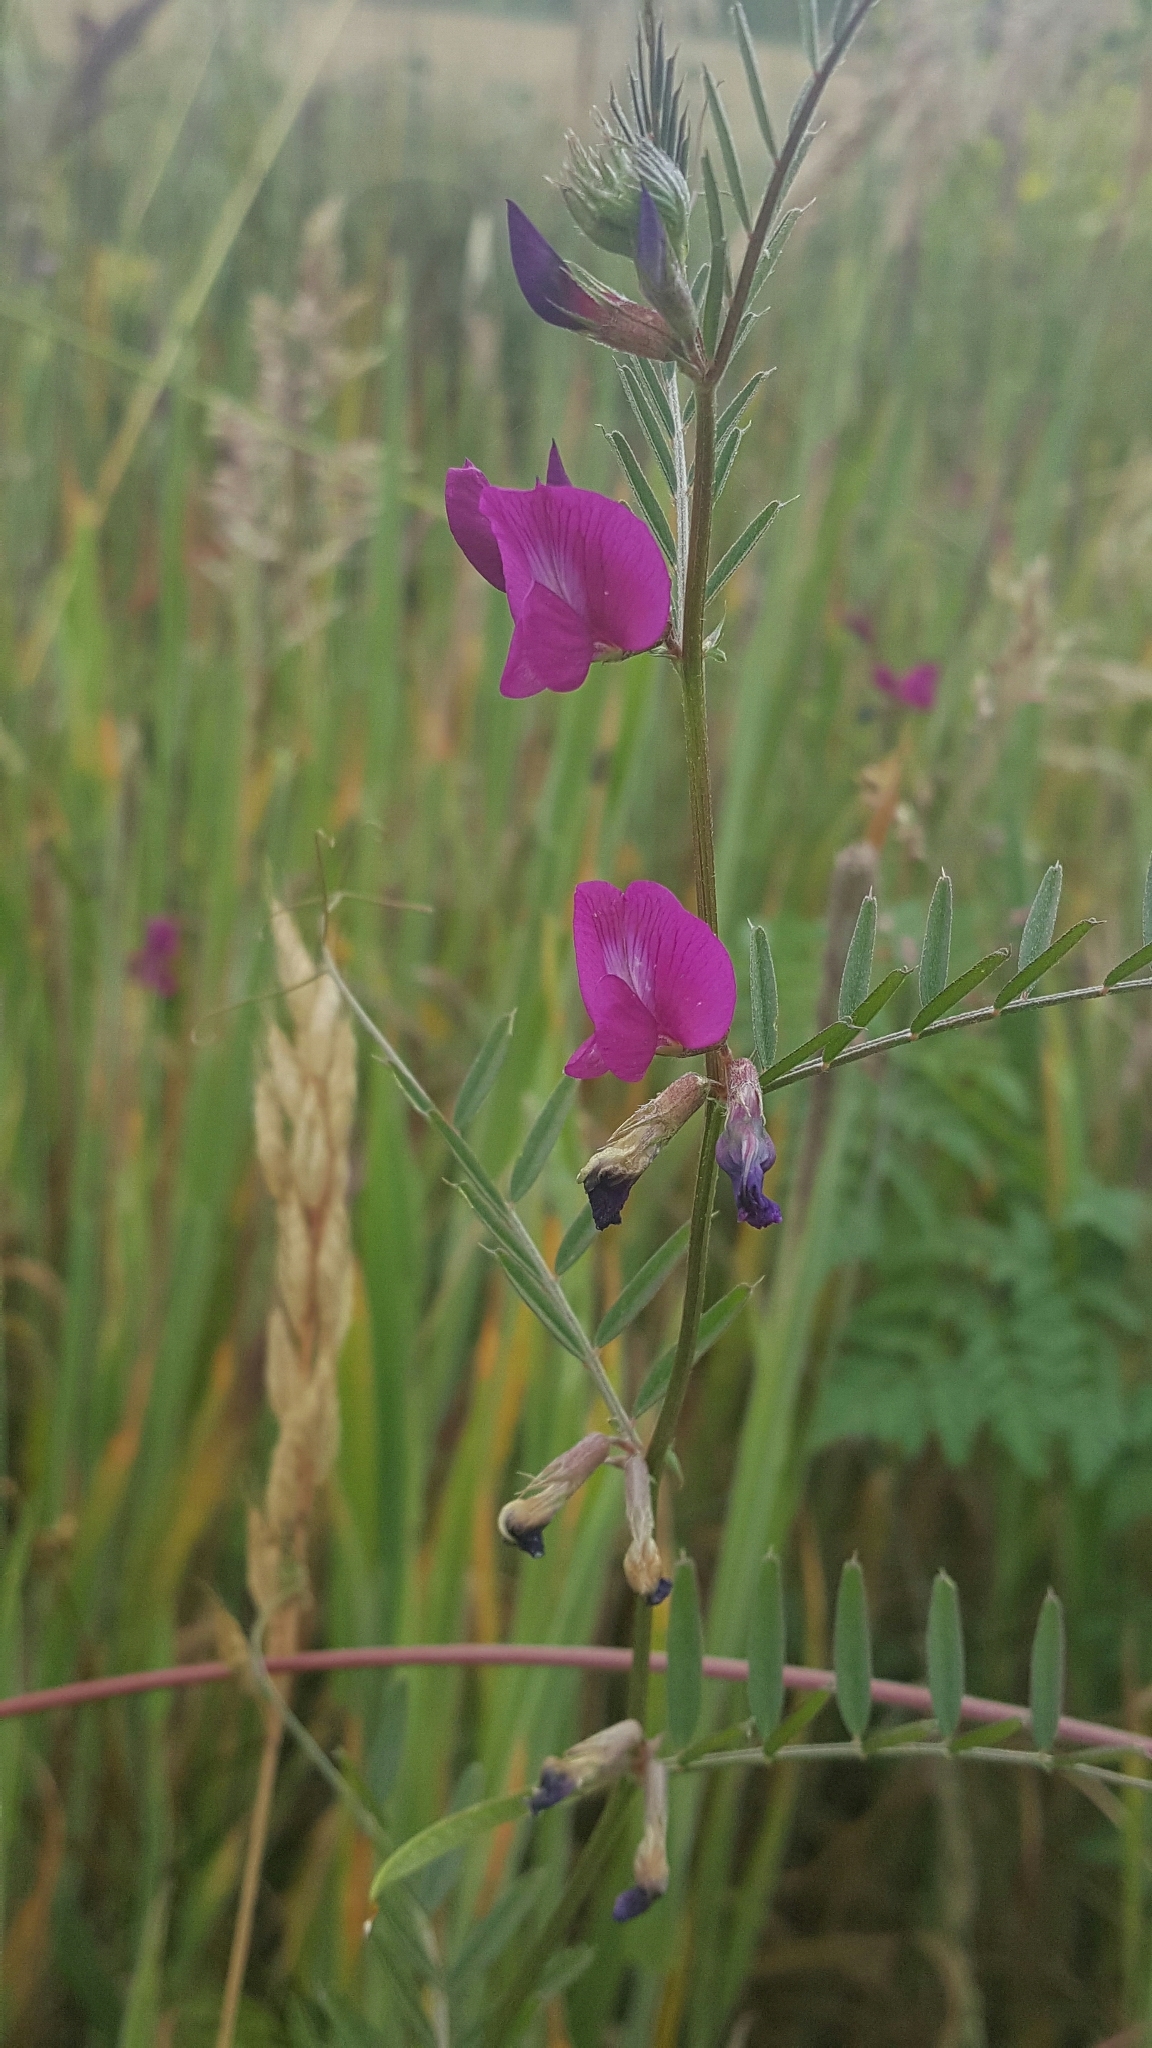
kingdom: Plantae
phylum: Tracheophyta
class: Magnoliopsida
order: Fabales
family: Fabaceae
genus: Vicia
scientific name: Vicia sativa
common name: Garden vetch
